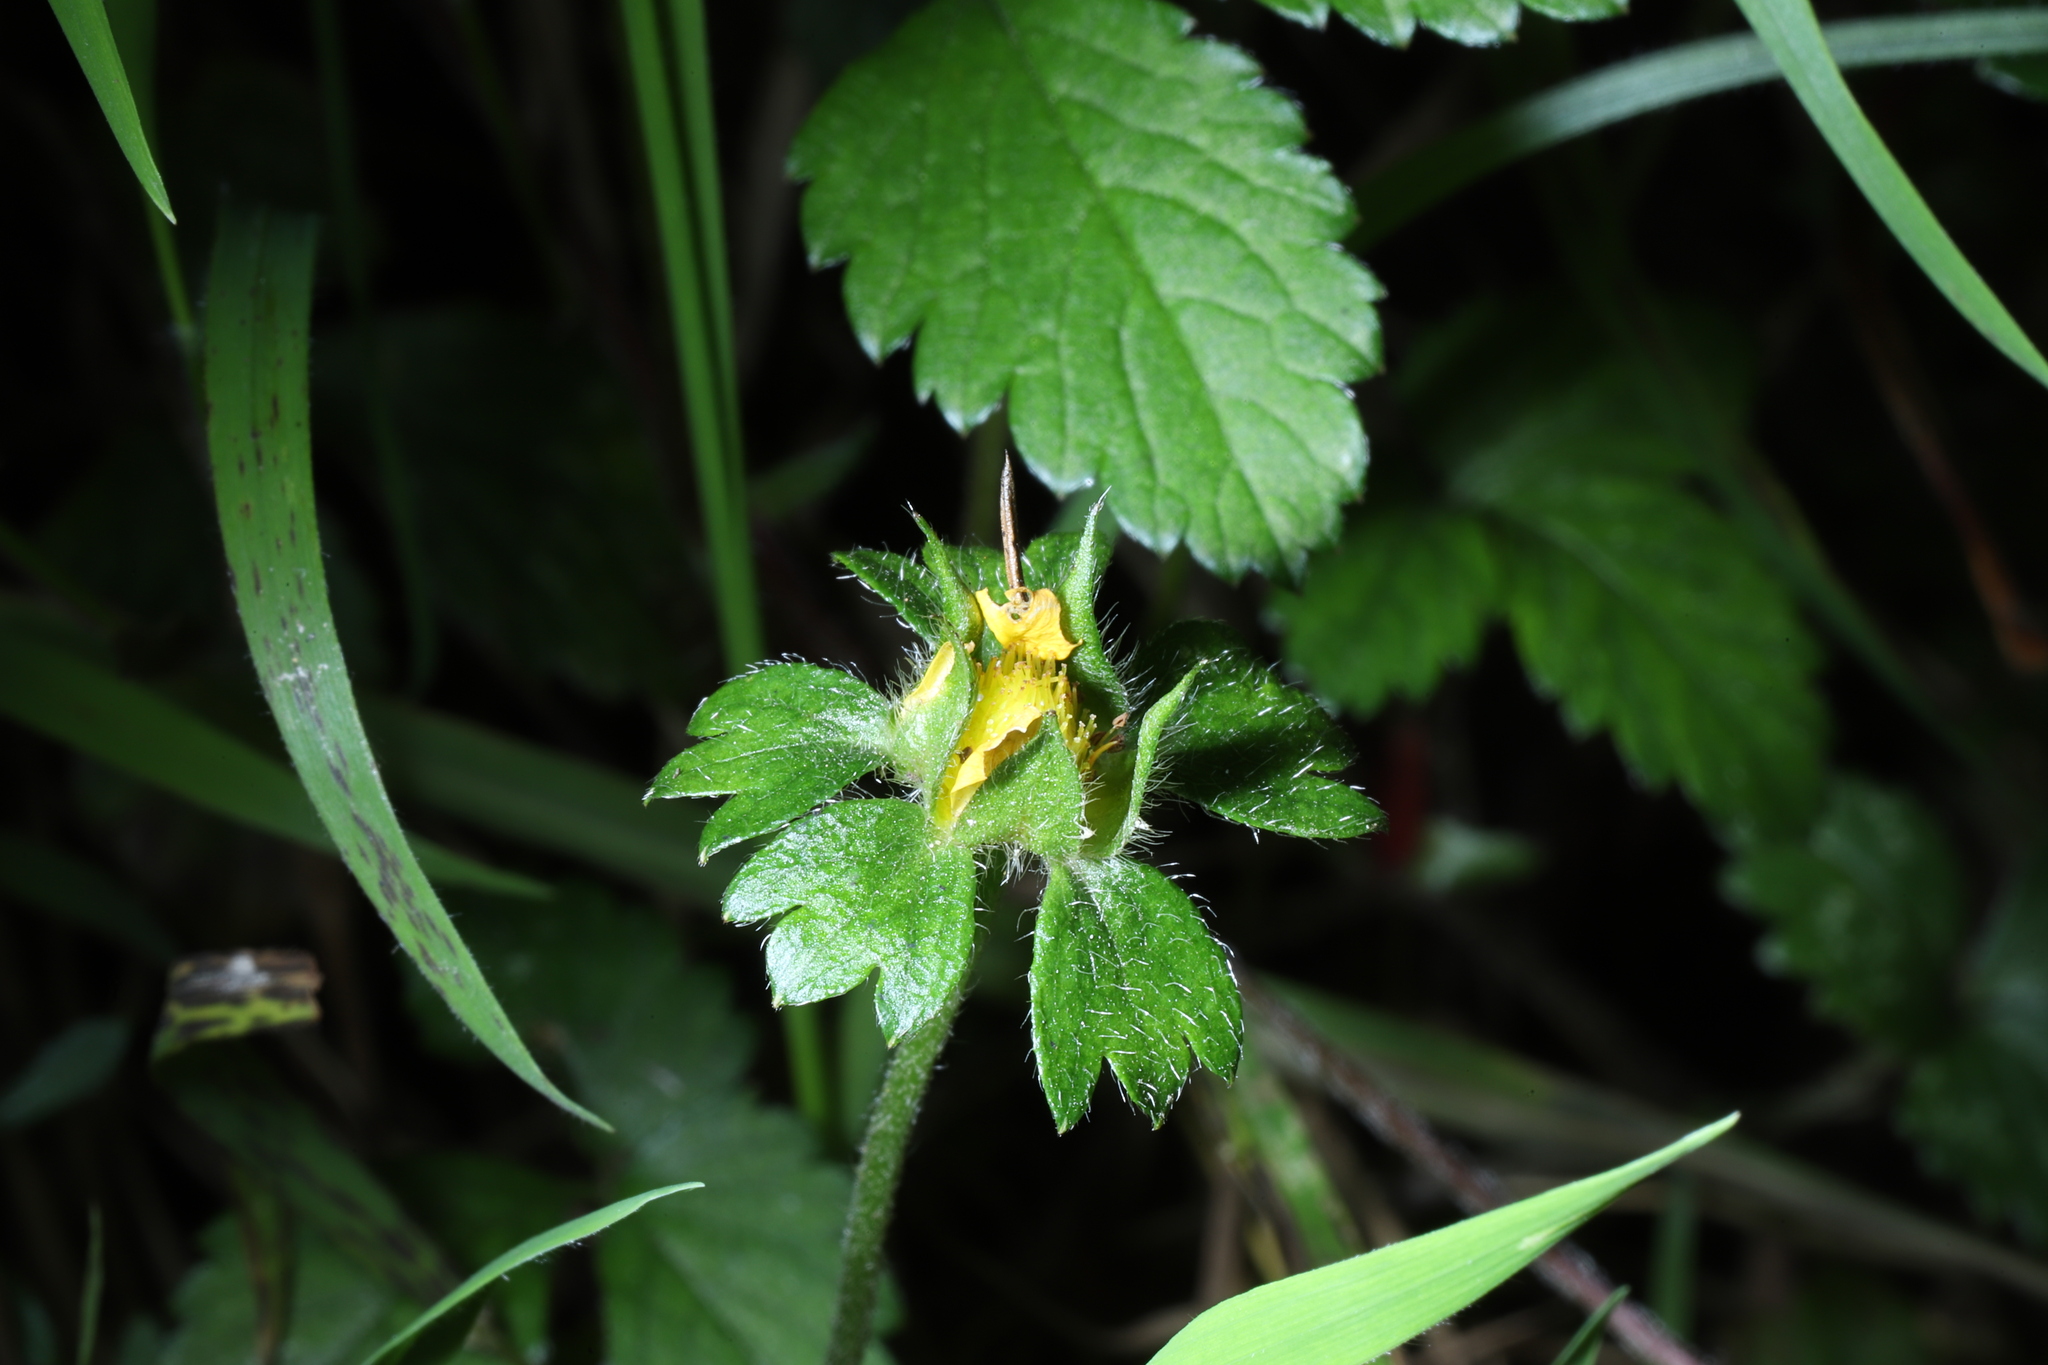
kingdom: Plantae
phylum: Tracheophyta
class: Magnoliopsida
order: Rosales
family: Rosaceae
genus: Potentilla
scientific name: Potentilla indica
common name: Yellow-flowered strawberry
